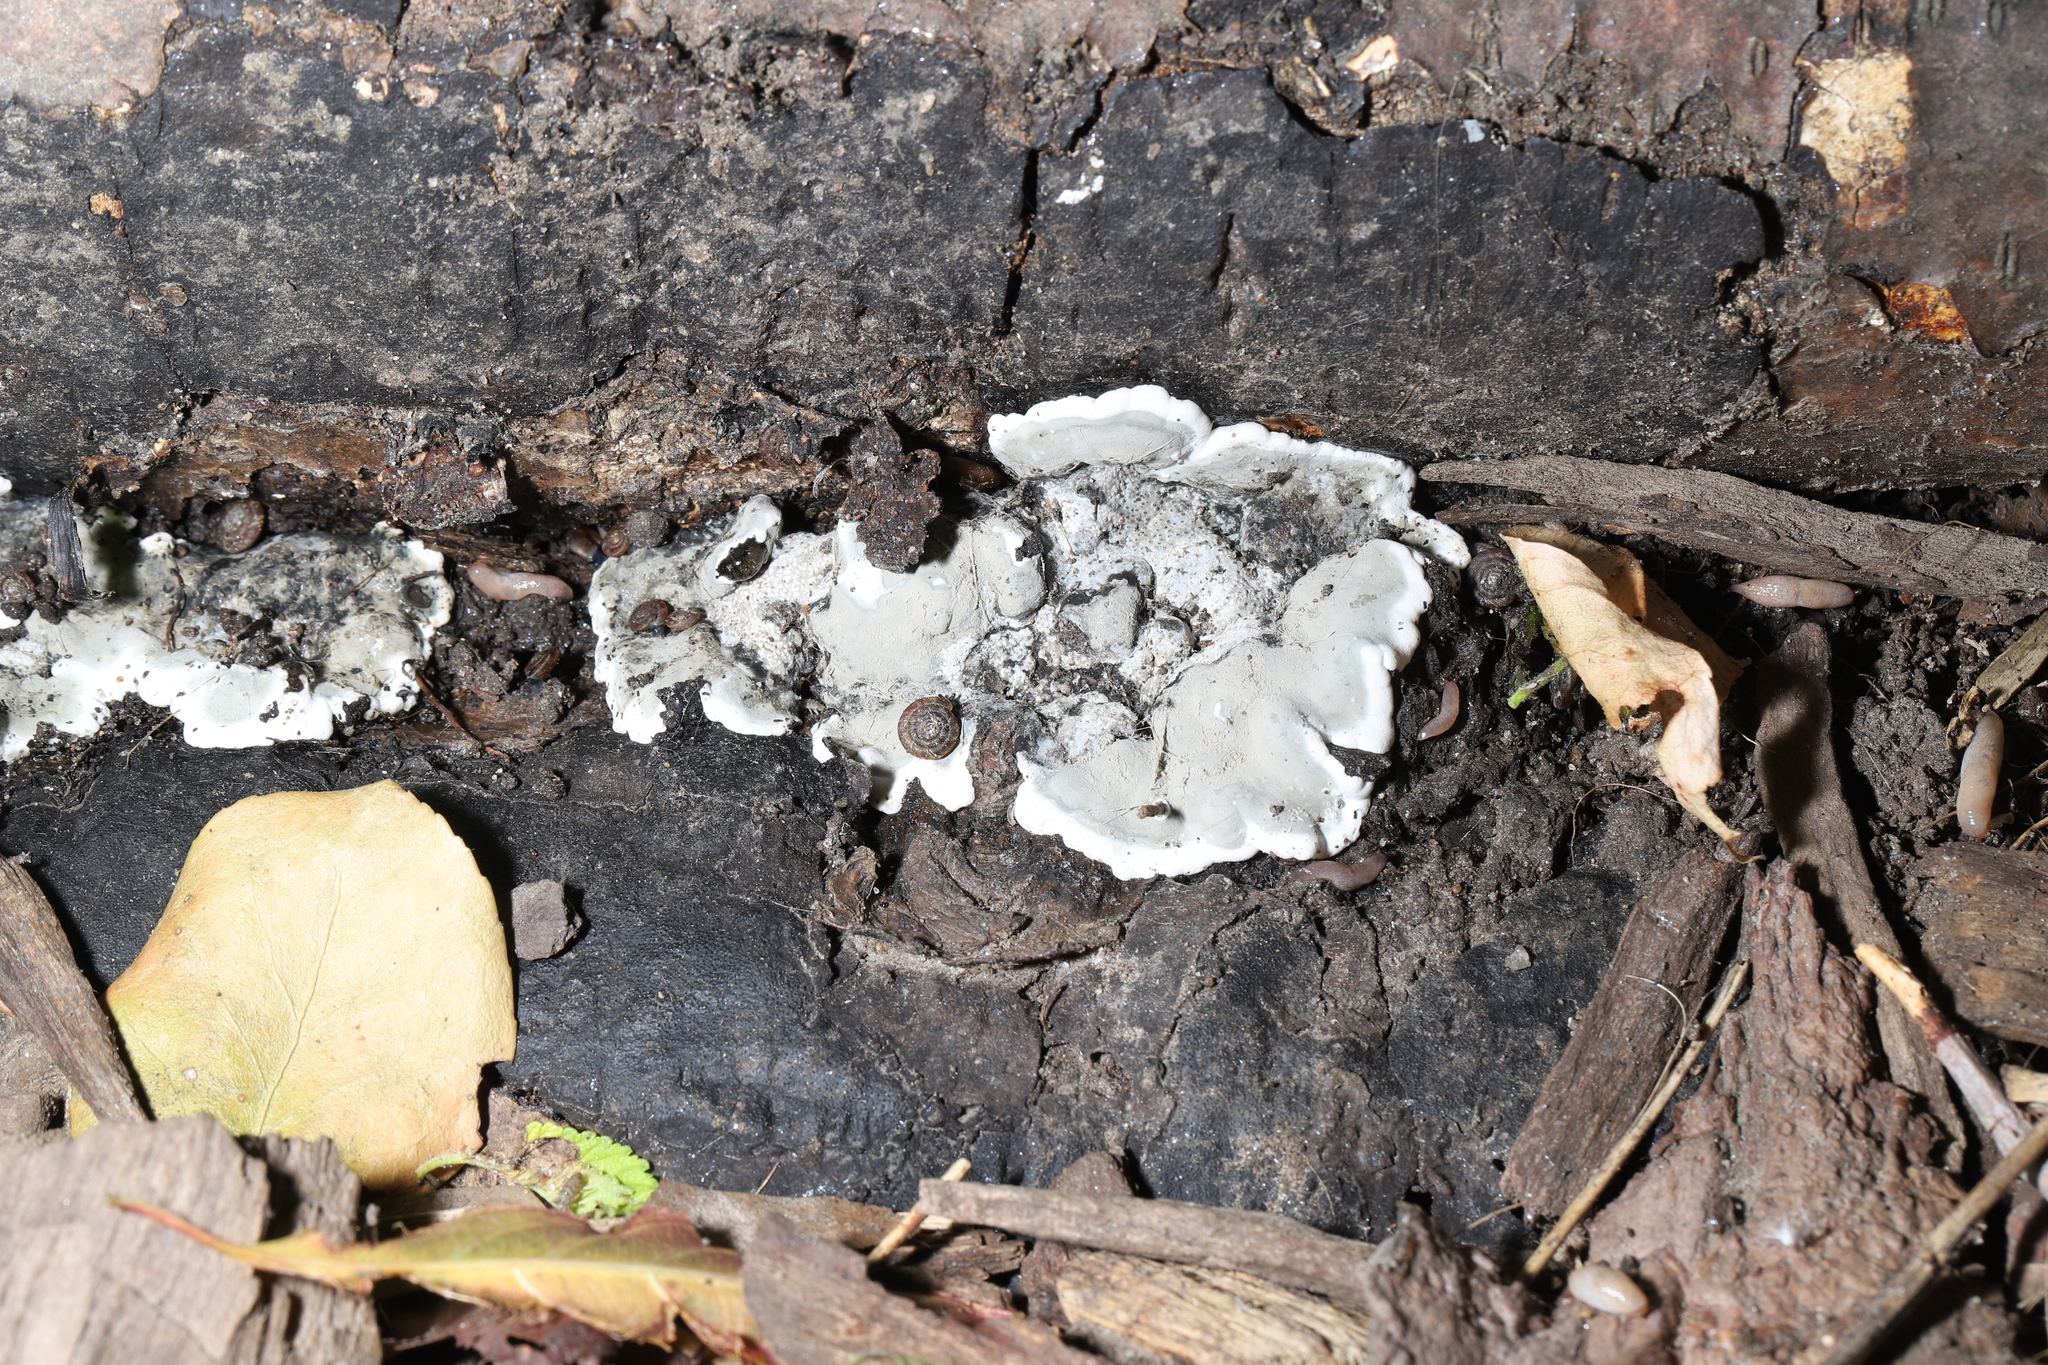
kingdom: Animalia
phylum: Mollusca
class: Gastropoda
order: Stylommatophora
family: Discidae
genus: Discus
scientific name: Discus rotundatus
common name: Rounded snail
